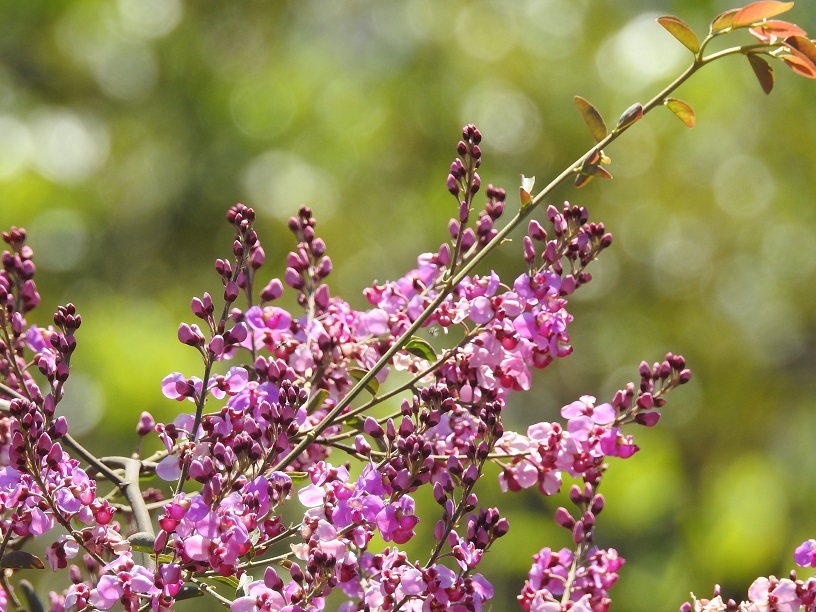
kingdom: Plantae
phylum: Tracheophyta
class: Magnoliopsida
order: Fabales
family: Polygalaceae
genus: Asemeia
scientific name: Asemeia floribunda
